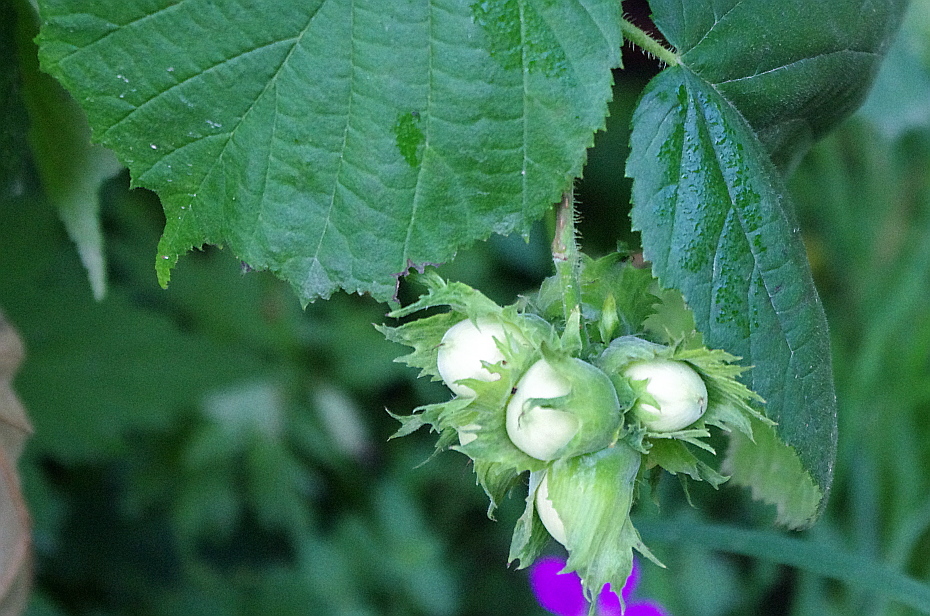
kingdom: Plantae
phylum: Tracheophyta
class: Magnoliopsida
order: Fagales
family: Betulaceae
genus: Corylus
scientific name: Corylus avellana
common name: European hazel
